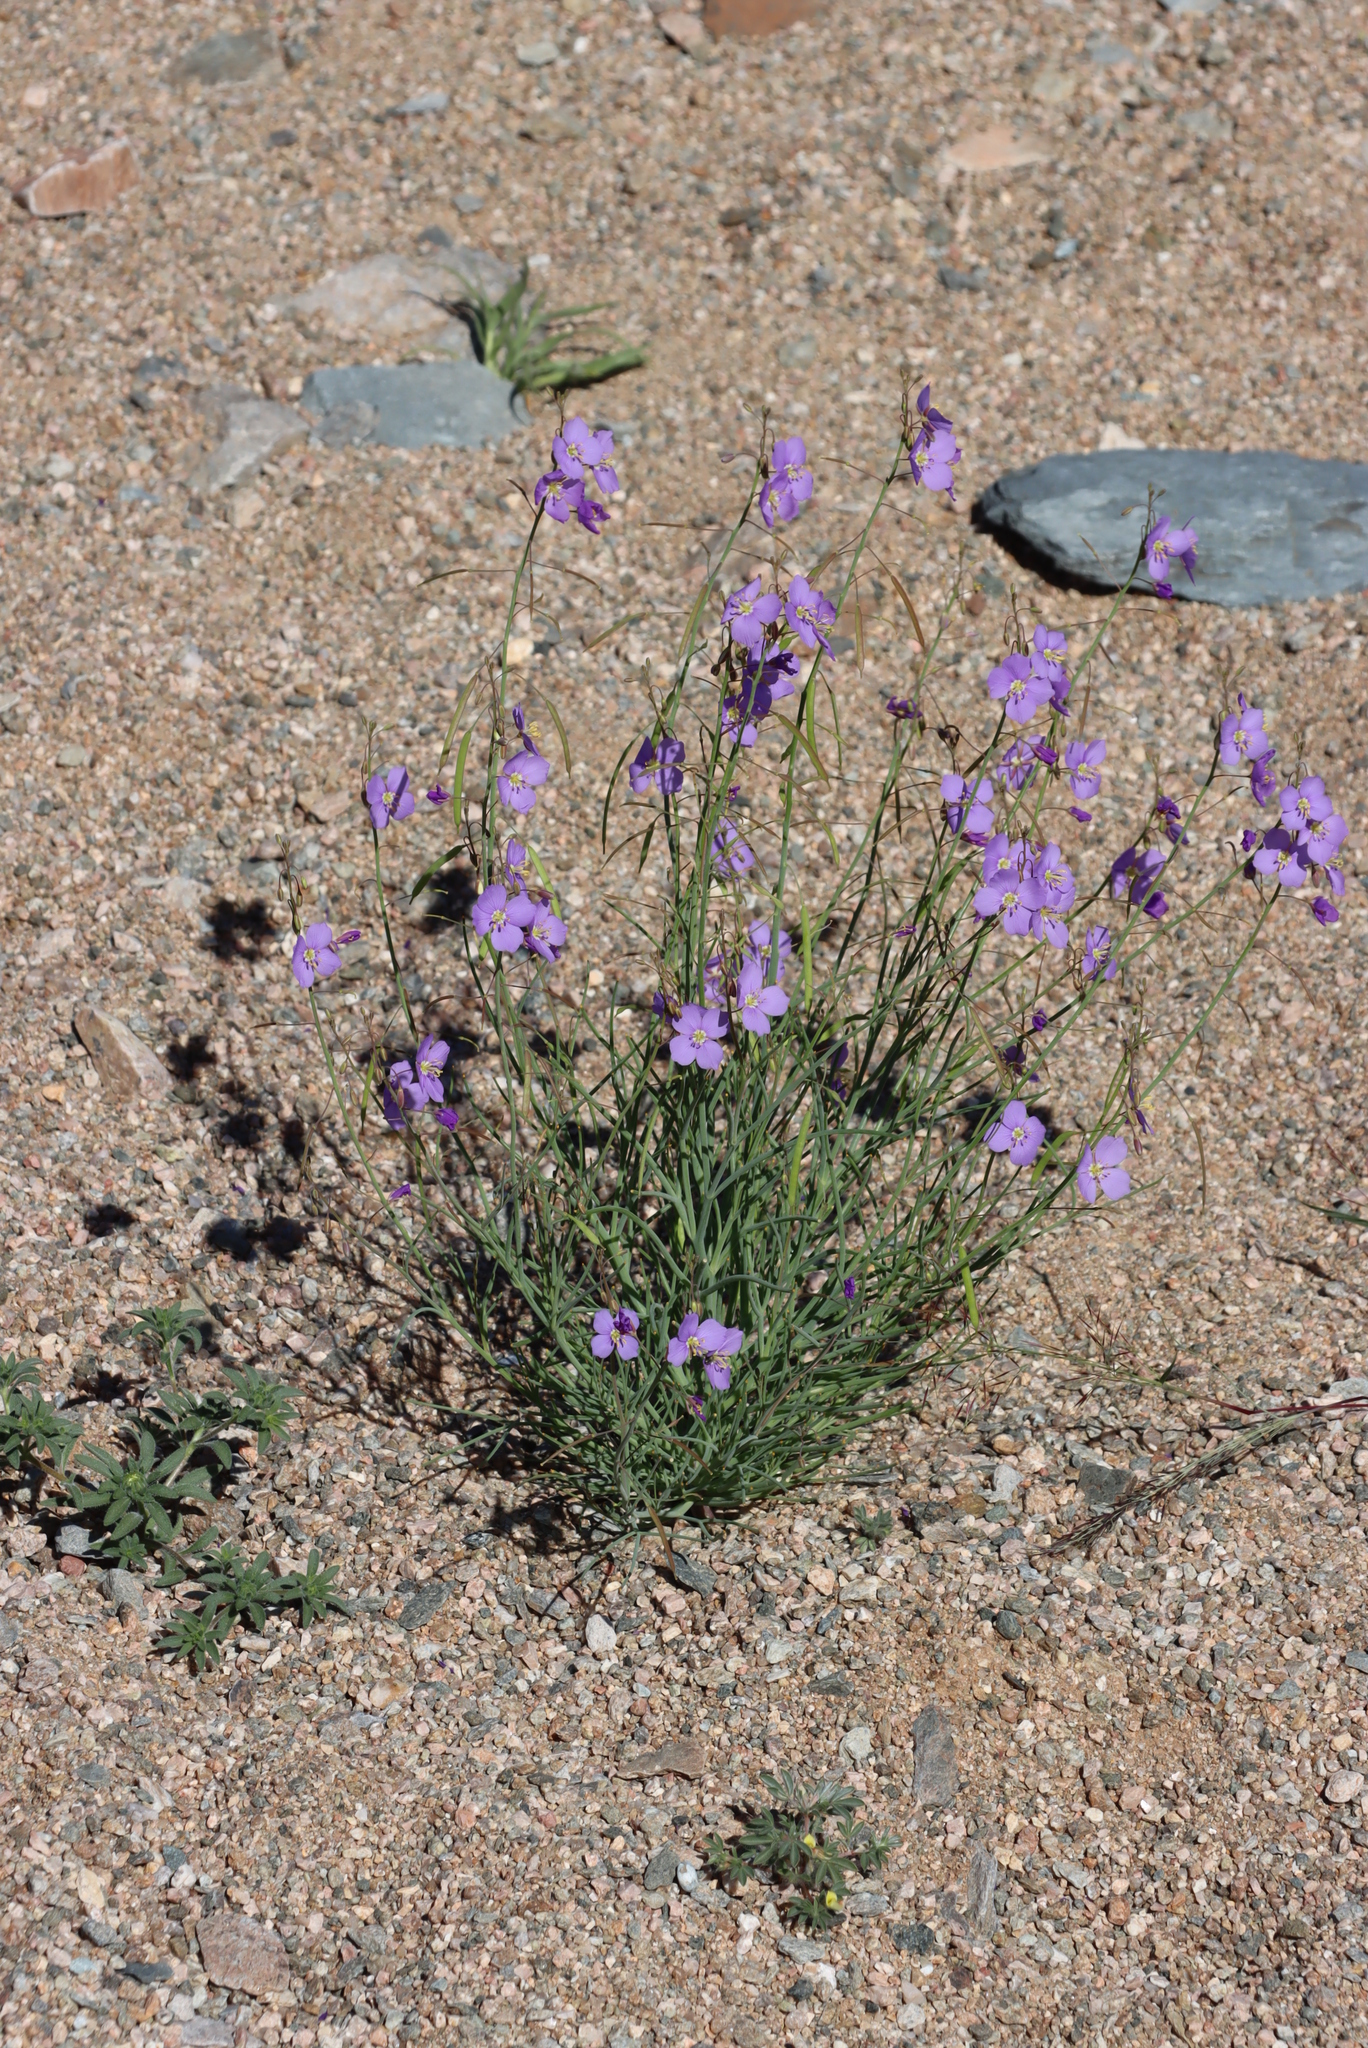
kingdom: Plantae
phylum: Tracheophyta
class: Magnoliopsida
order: Brassicales
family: Brassicaceae
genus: Heliophila
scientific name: Heliophila trifurca
